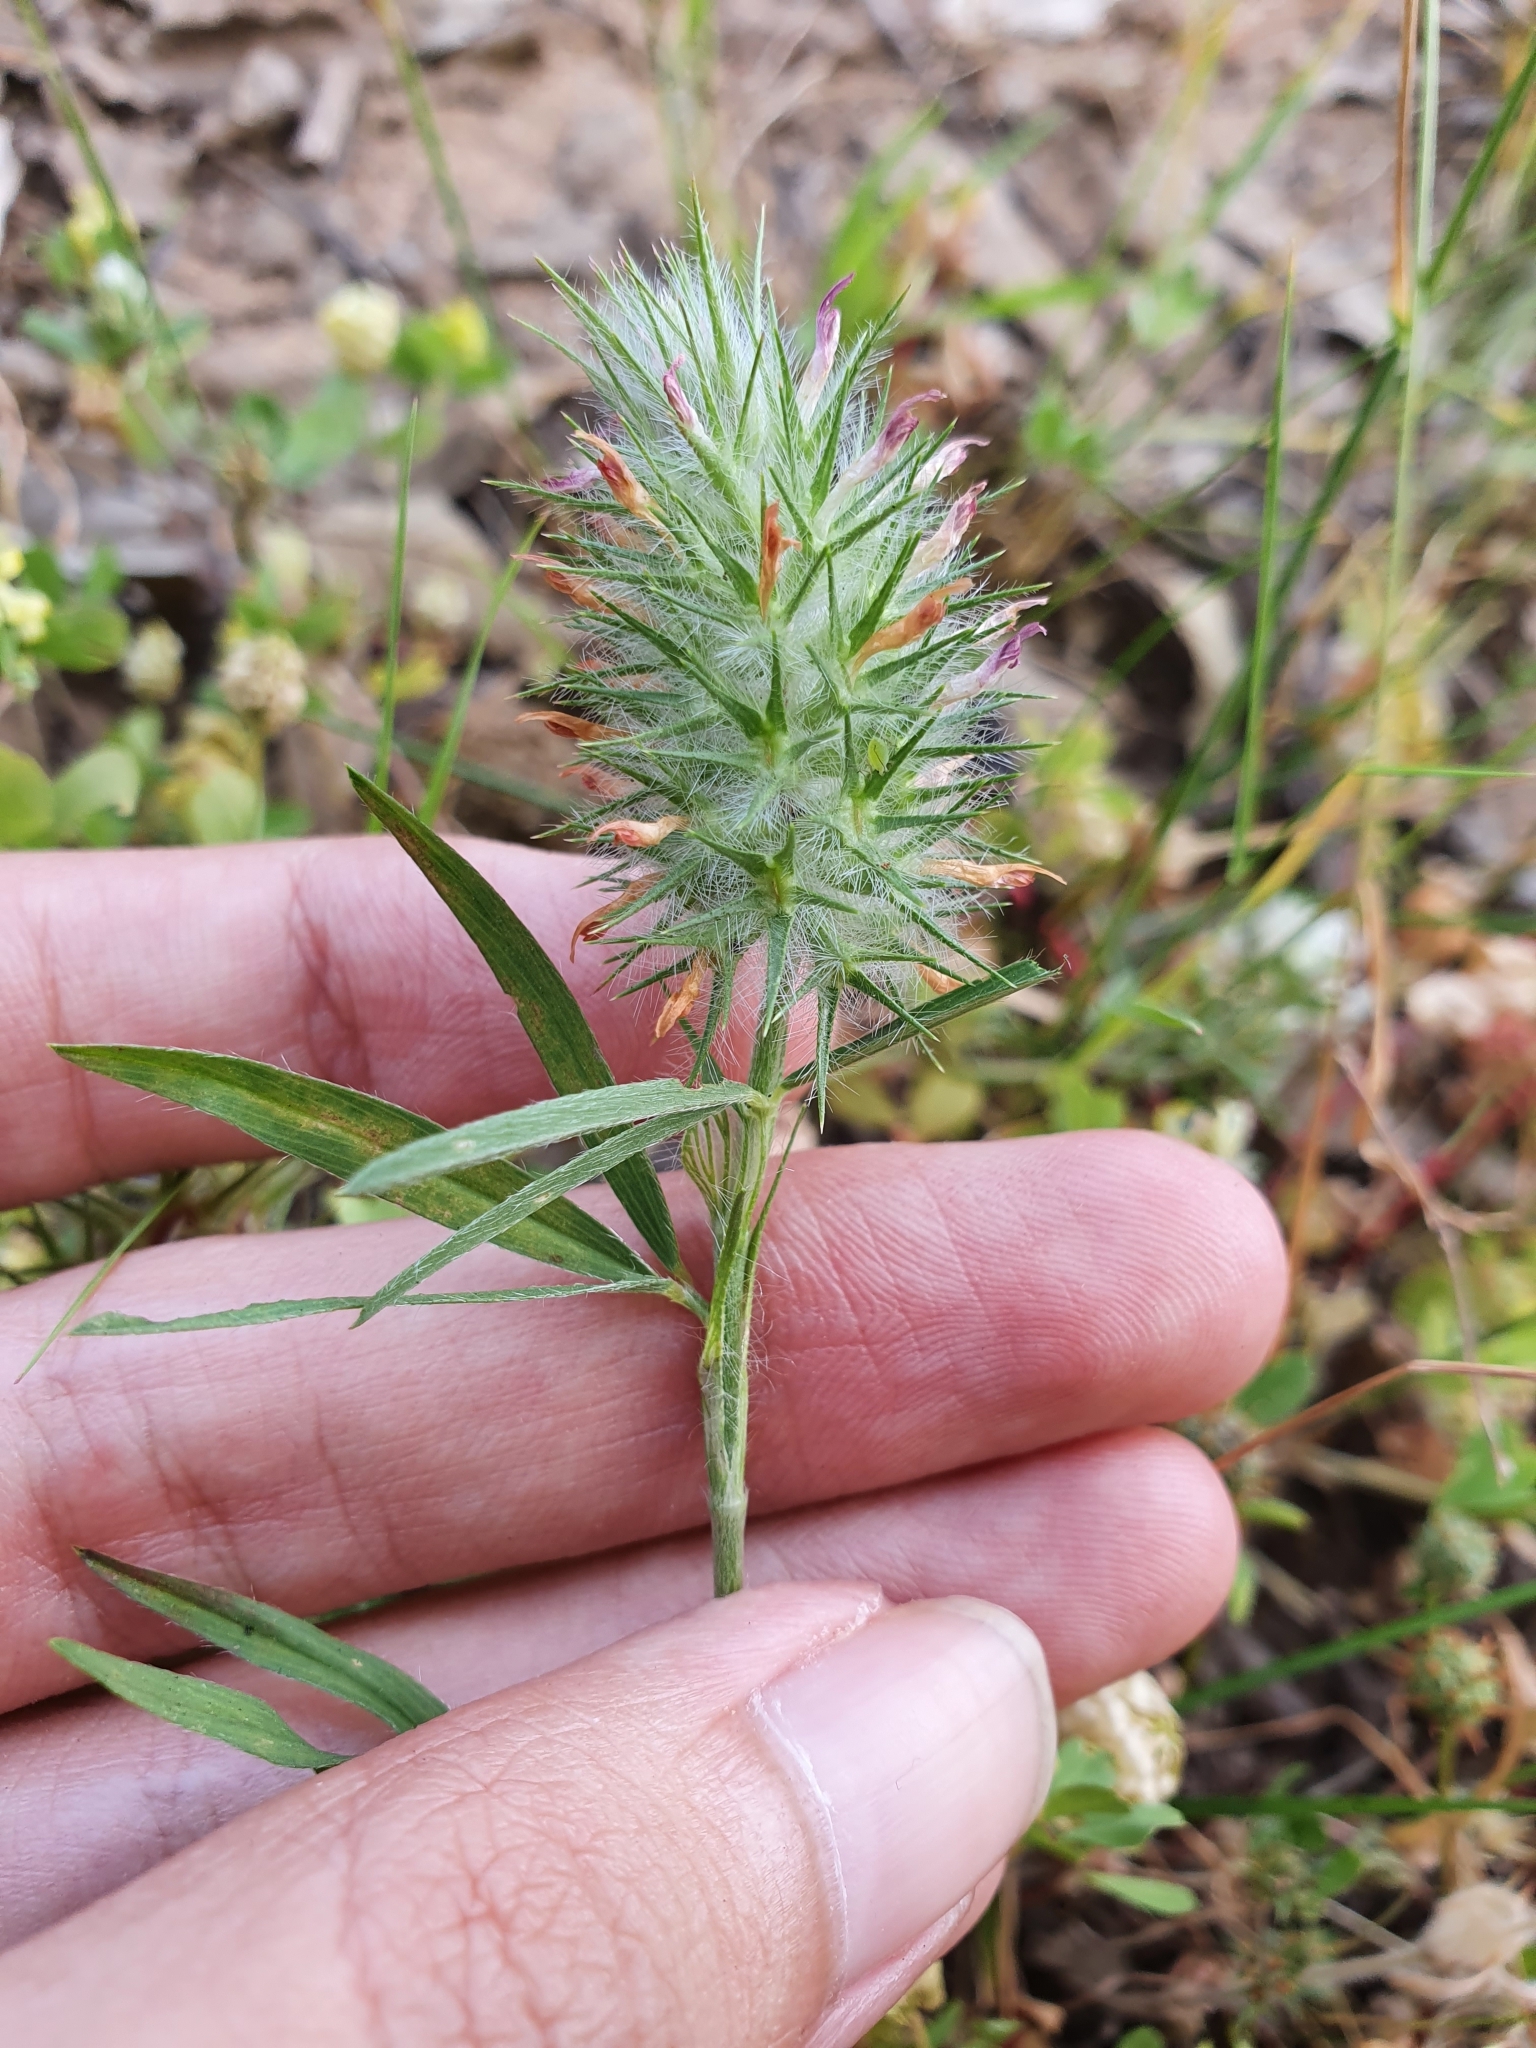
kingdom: Plantae
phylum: Tracheophyta
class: Magnoliopsida
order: Fabales
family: Fabaceae
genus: Trifolium
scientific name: Trifolium angustifolium
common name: Narrow clover
